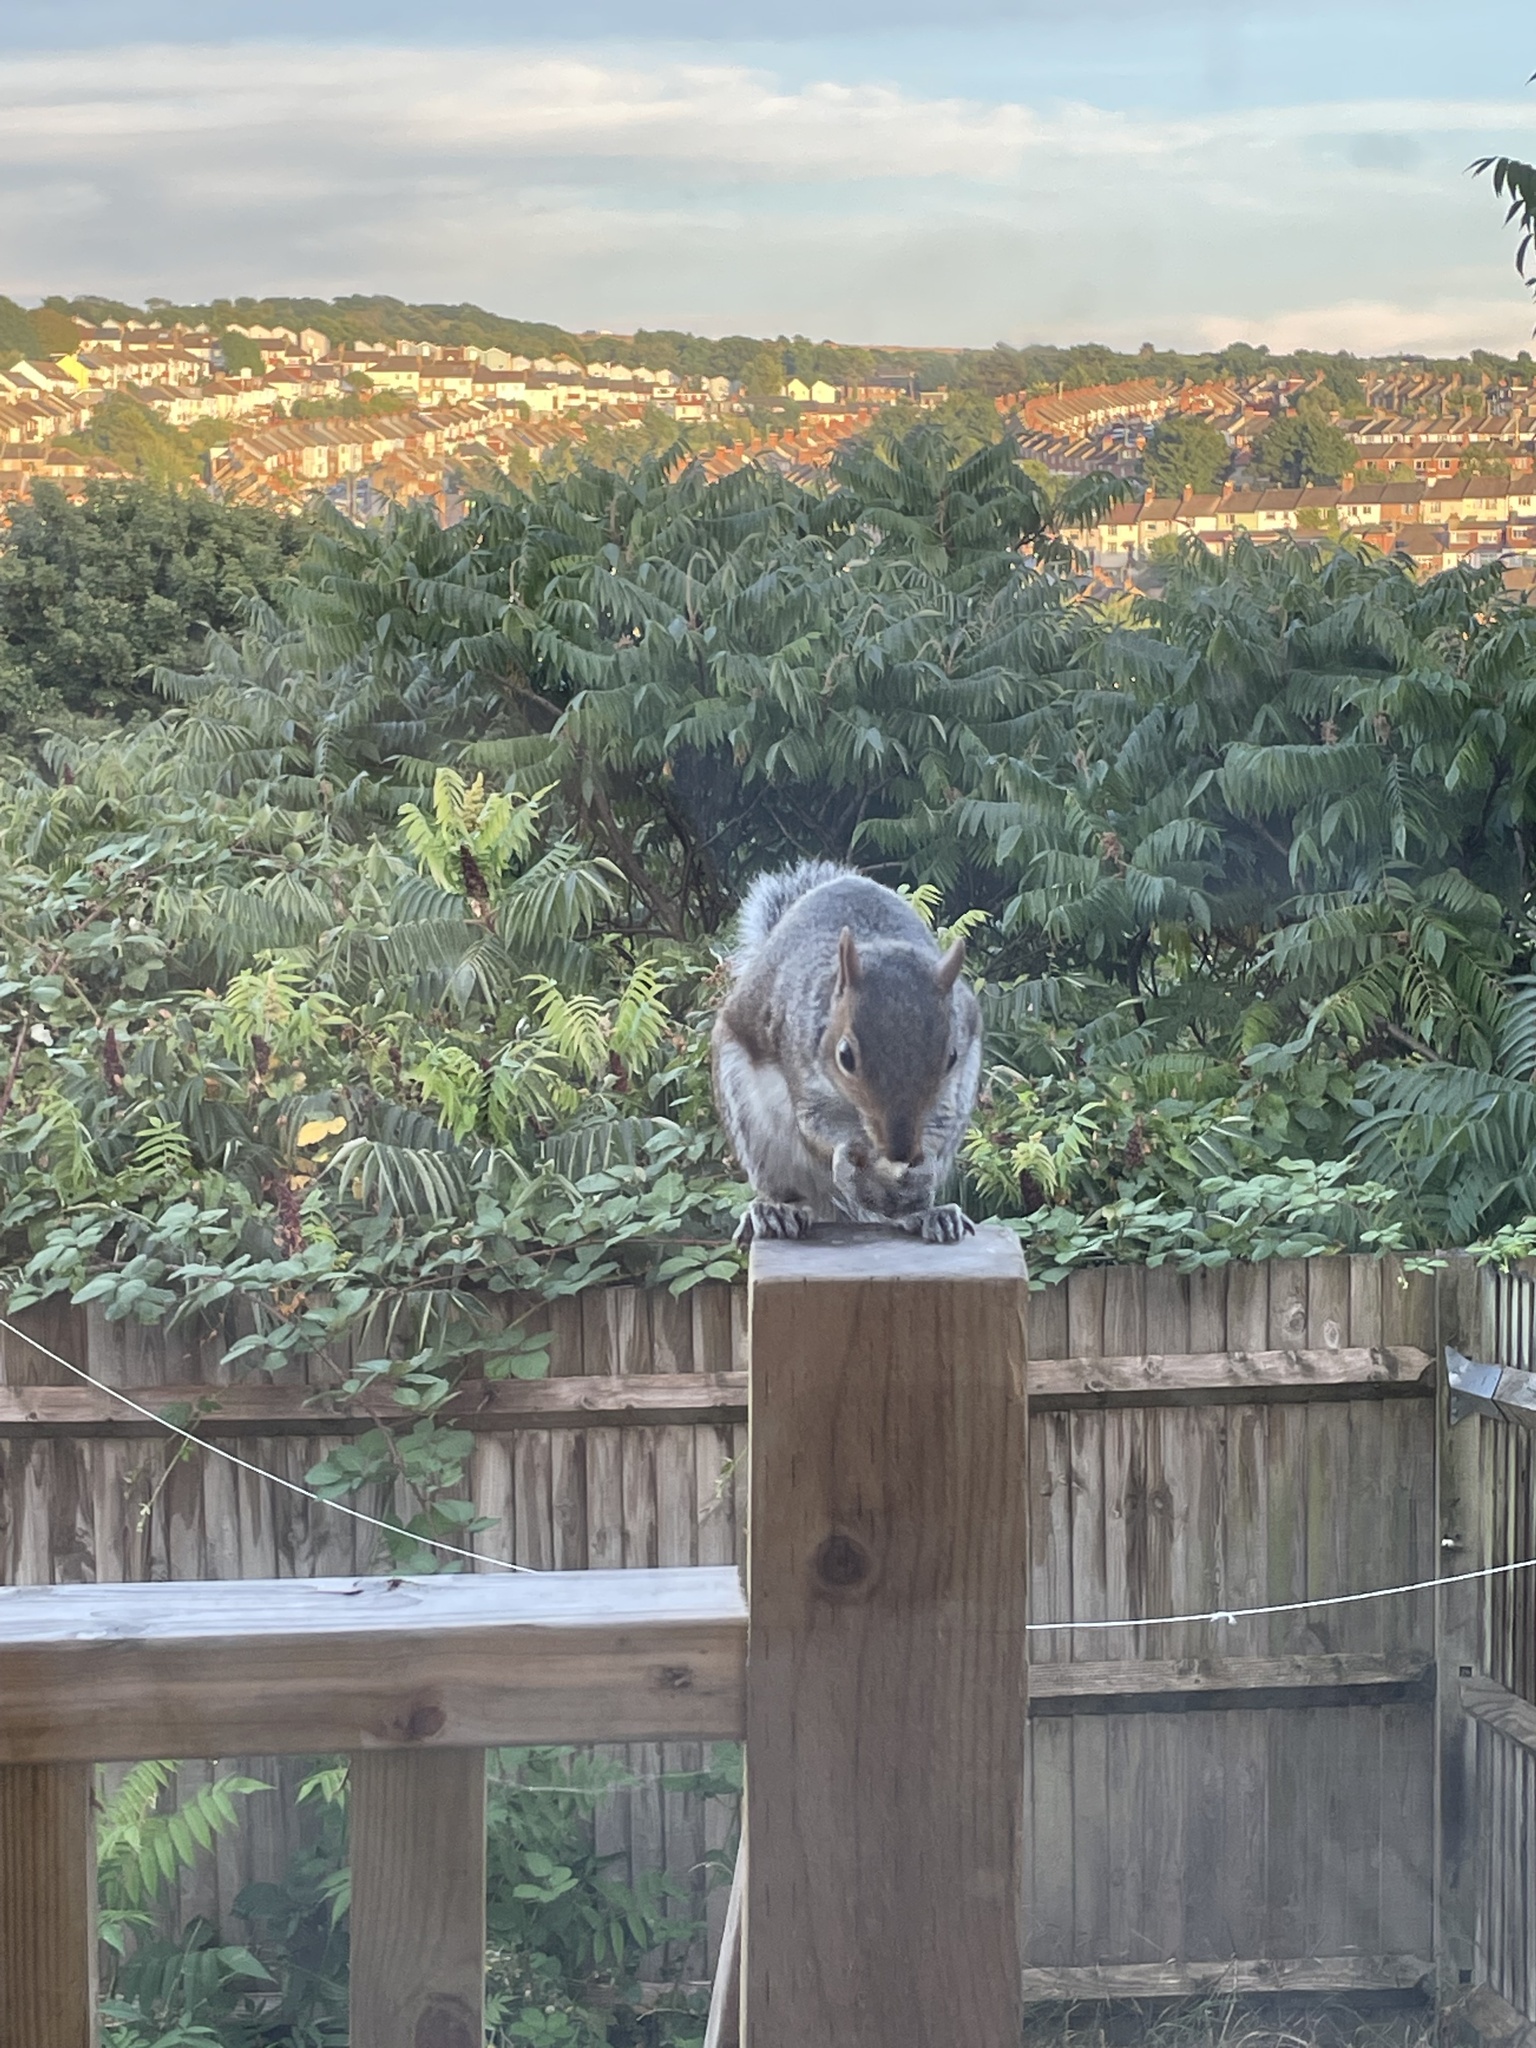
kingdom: Animalia
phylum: Chordata
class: Mammalia
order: Rodentia
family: Sciuridae
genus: Sciurus
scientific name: Sciurus carolinensis
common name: Eastern gray squirrel
